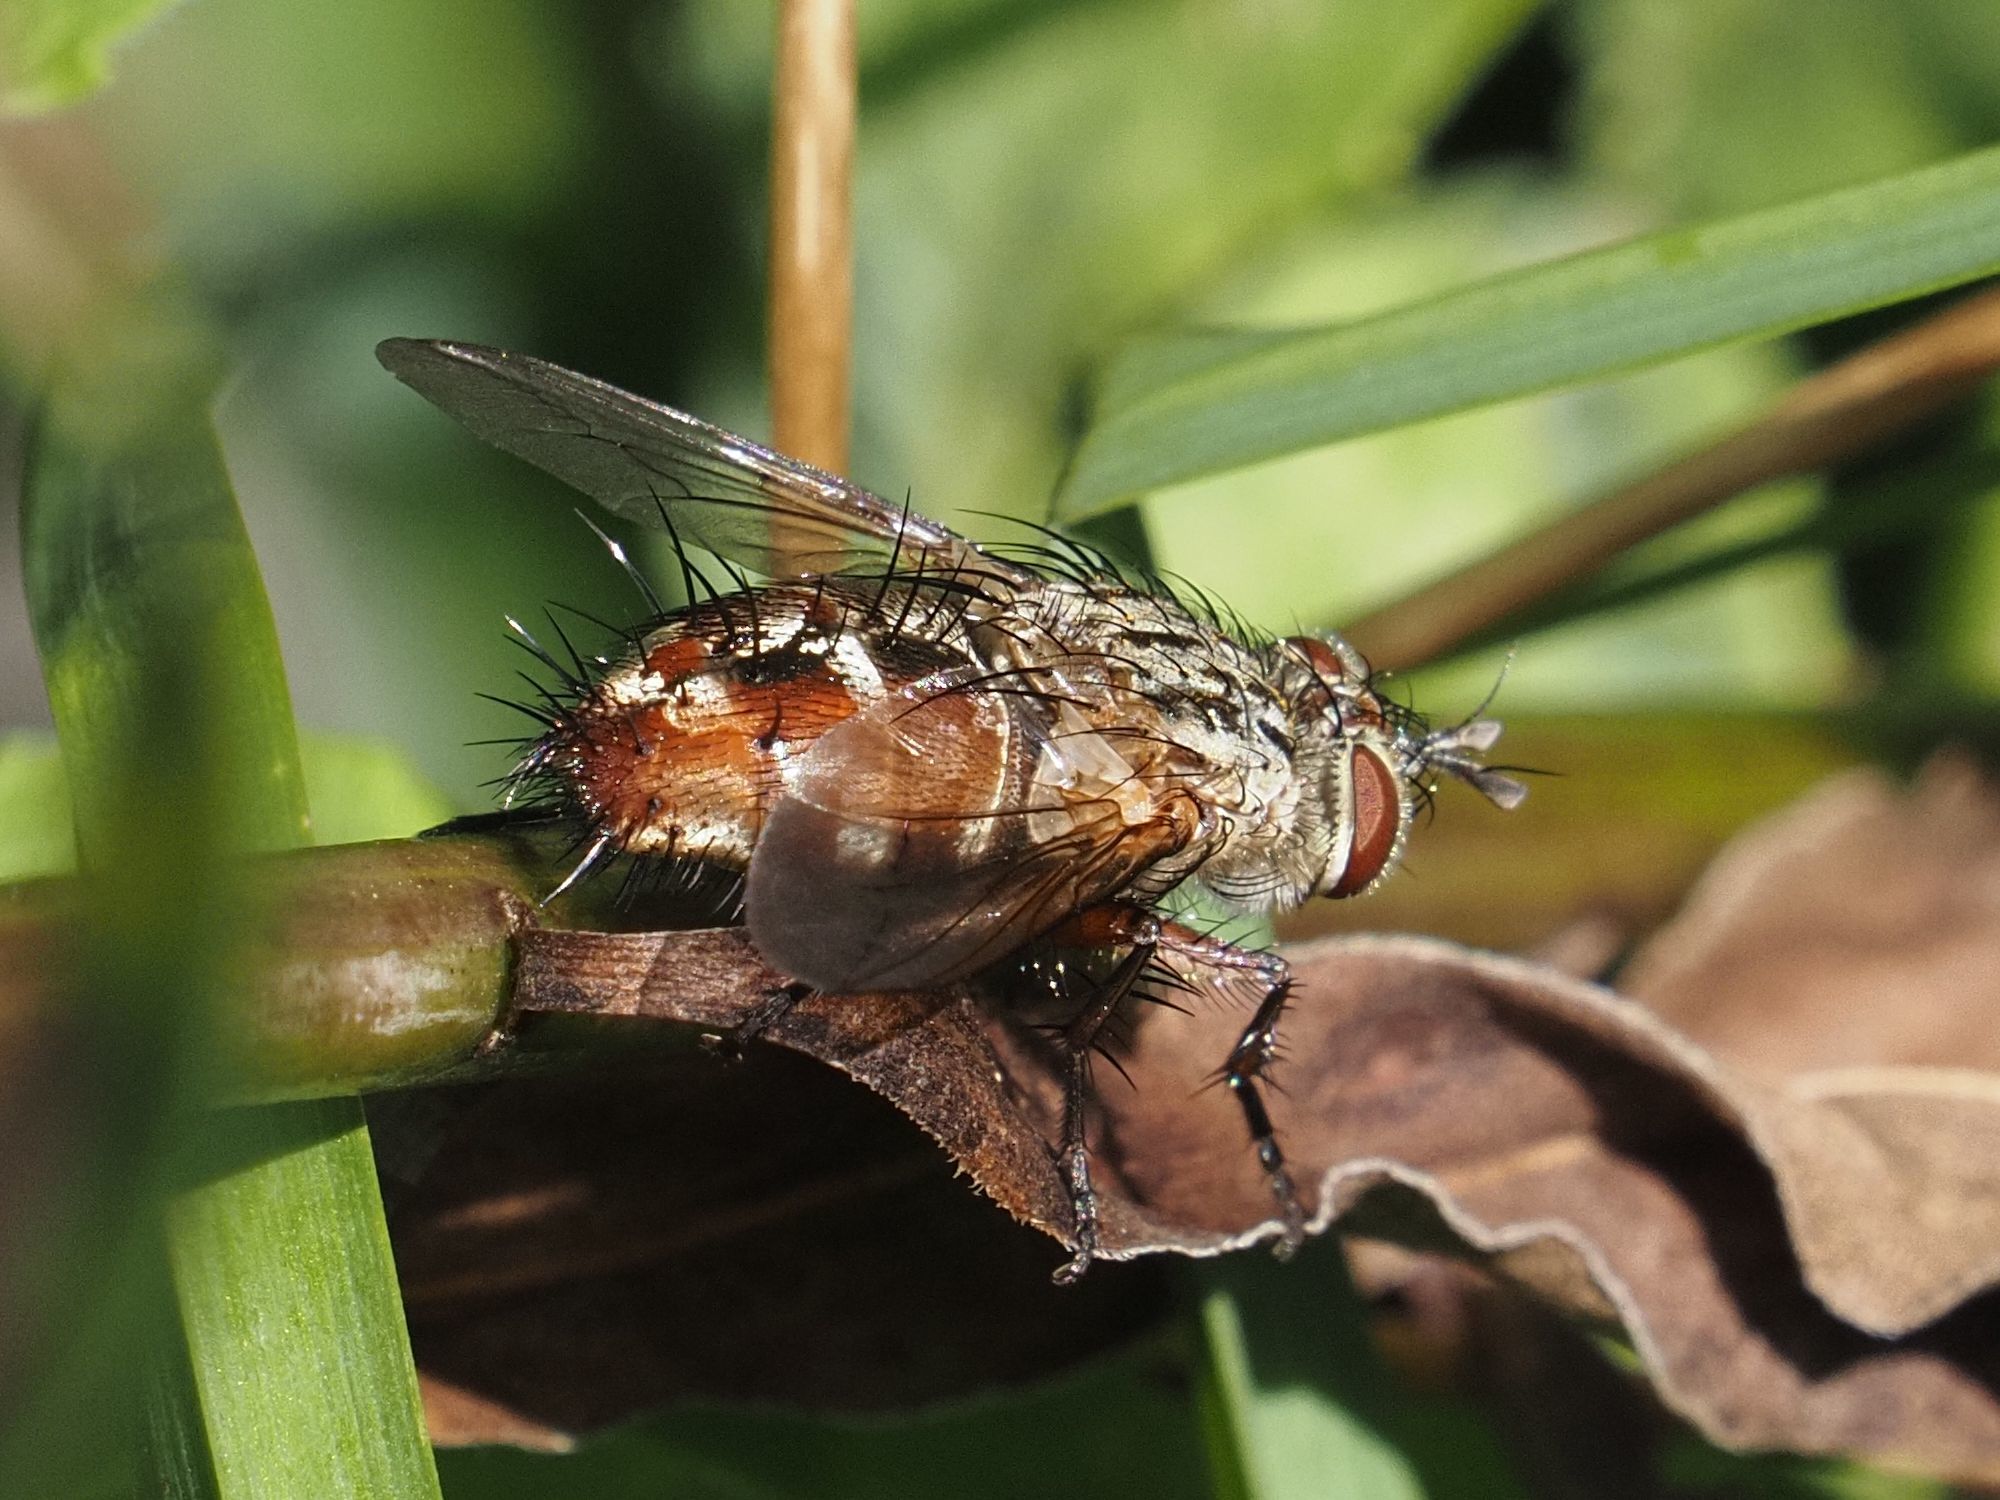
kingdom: Animalia
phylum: Arthropoda
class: Insecta
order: Diptera
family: Tachinidae
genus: Linnaemya
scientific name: Linnaemya vulpina
